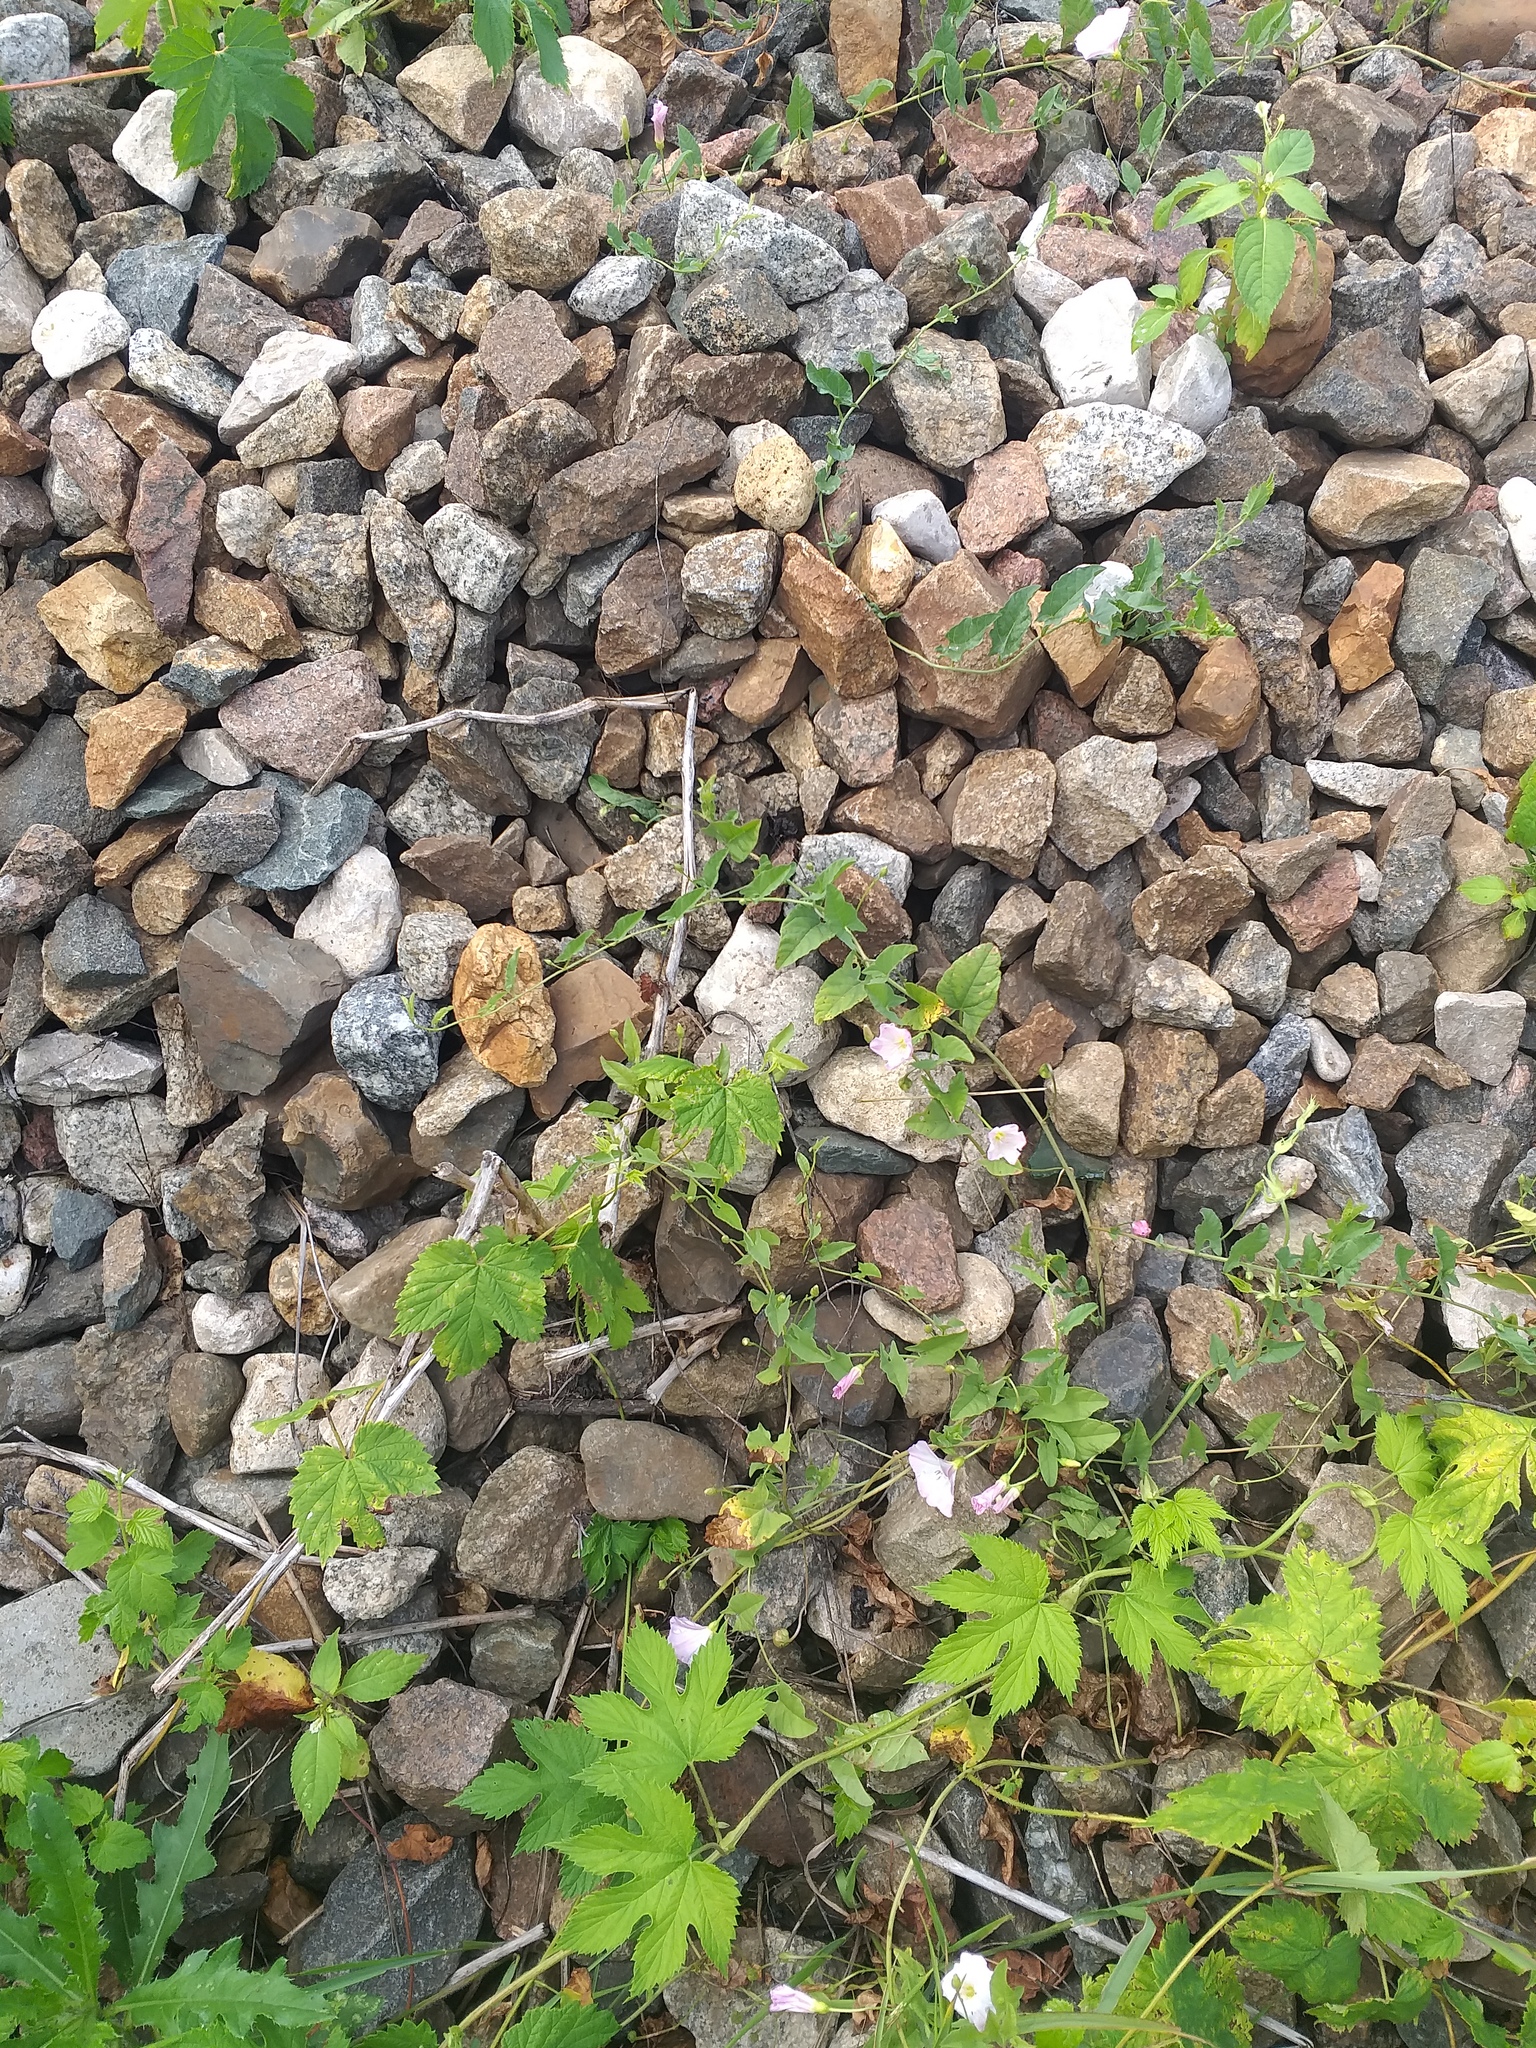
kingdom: Plantae
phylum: Tracheophyta
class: Magnoliopsida
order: Solanales
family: Convolvulaceae
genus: Convolvulus
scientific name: Convolvulus arvensis
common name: Field bindweed
